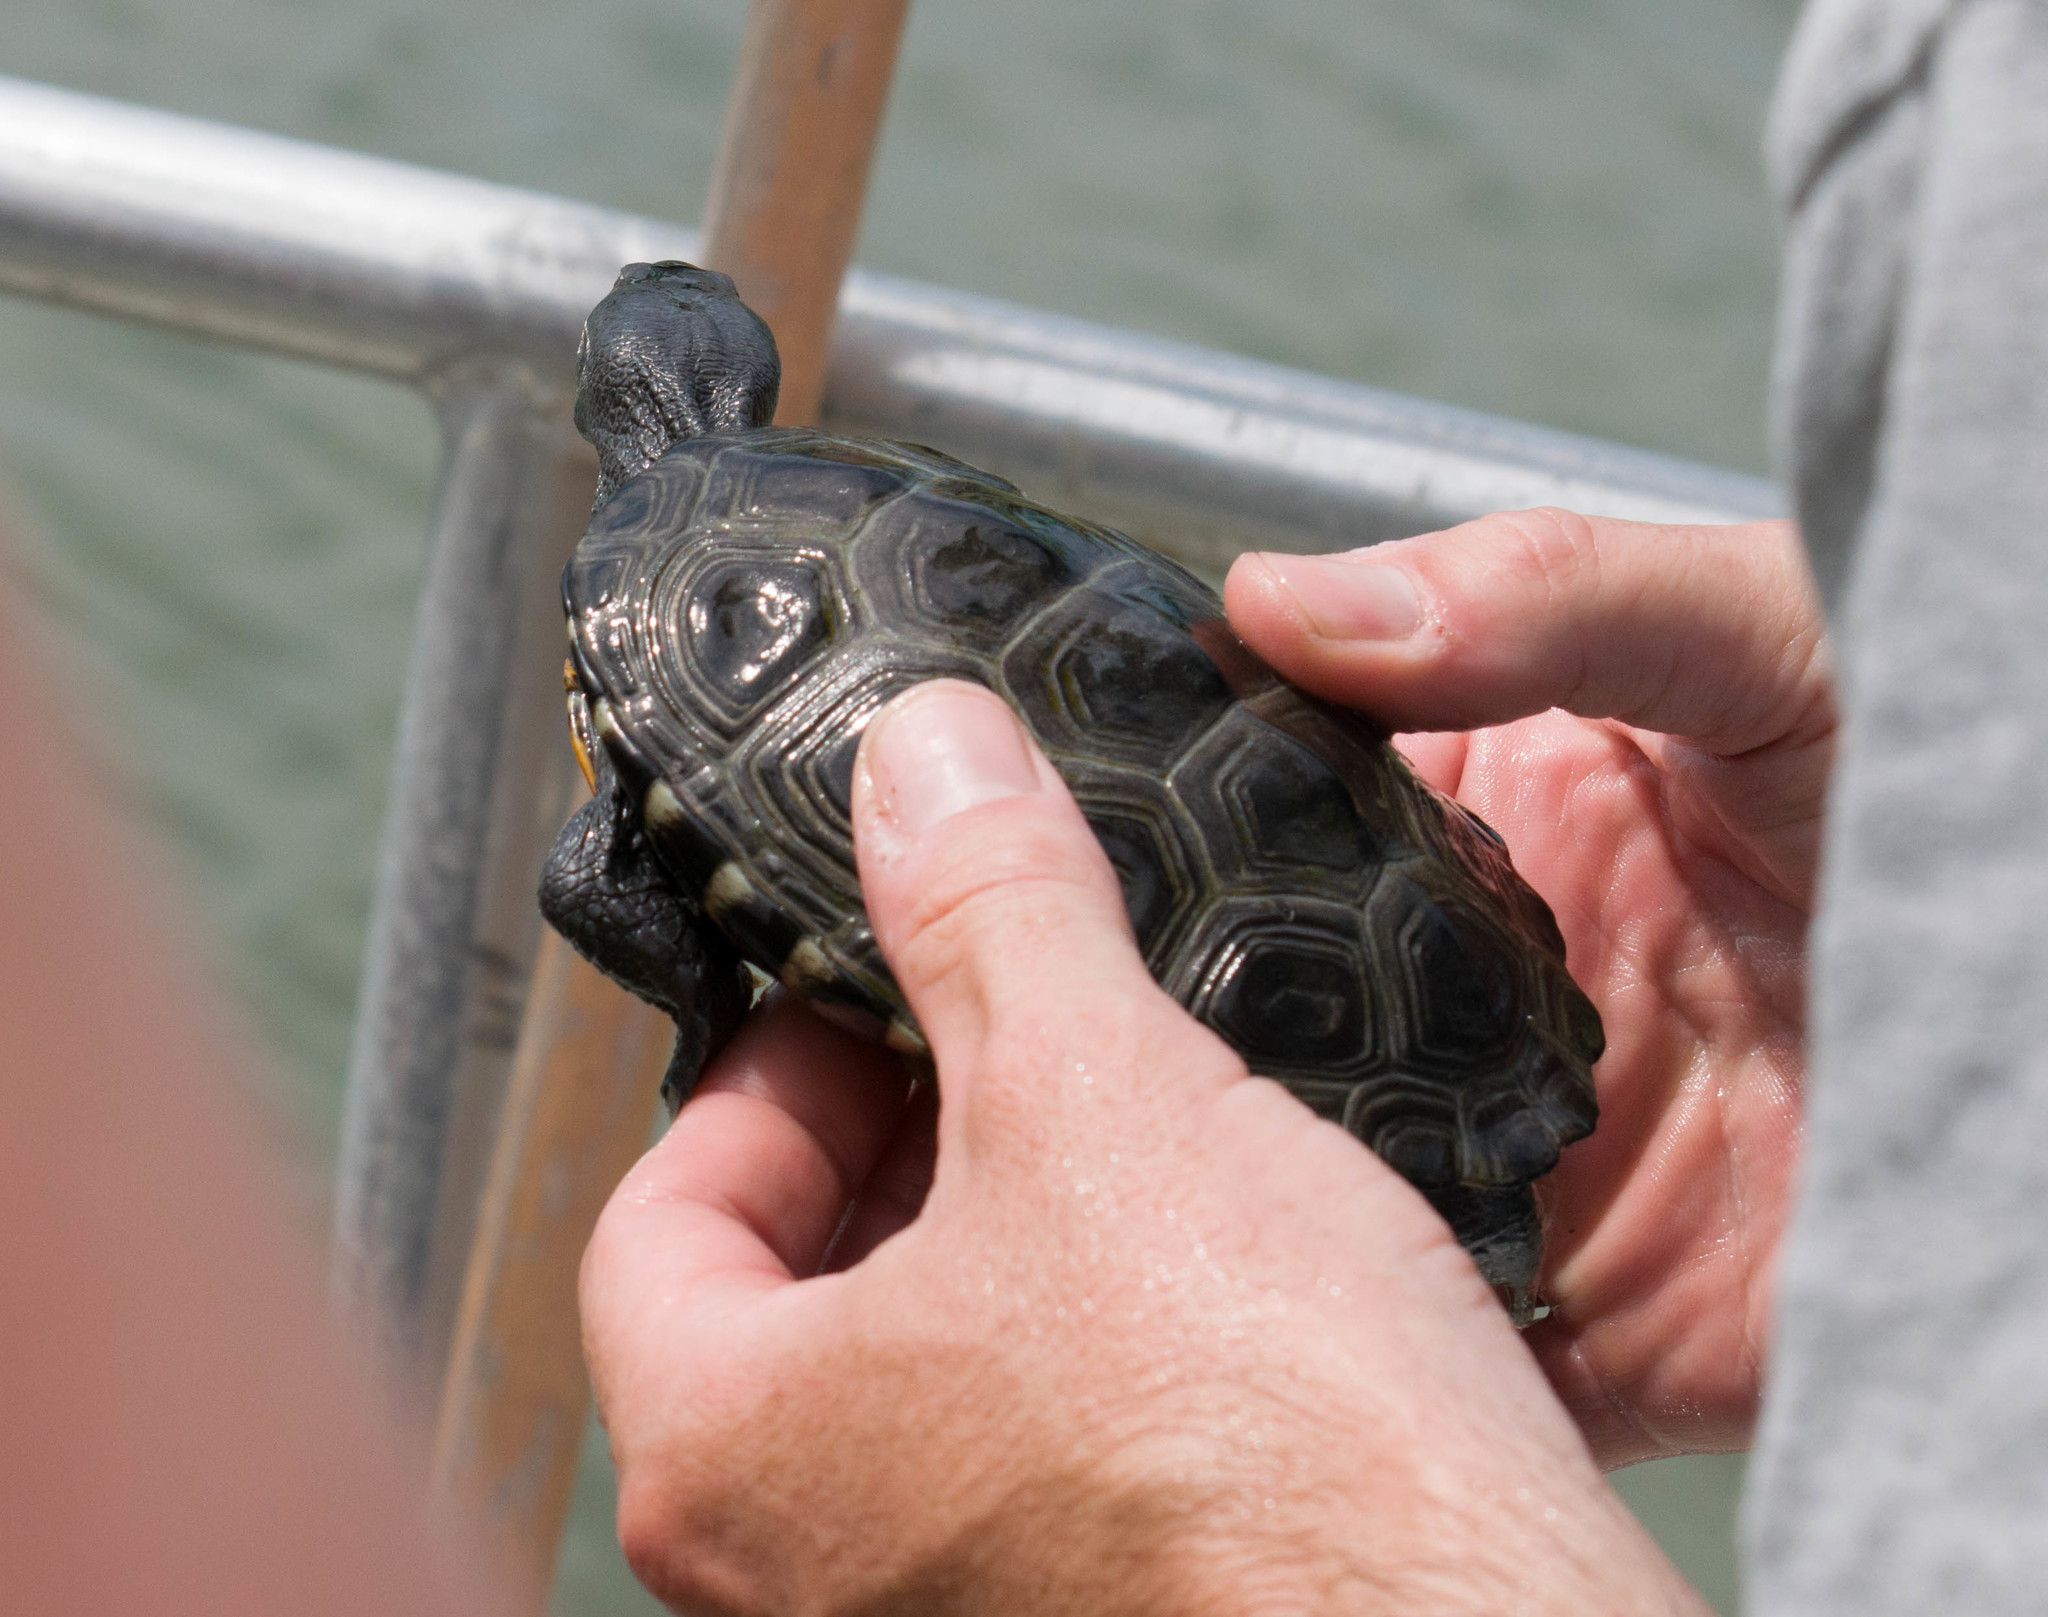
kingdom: Animalia
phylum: Chordata
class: Testudines
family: Emydidae
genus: Malaclemys
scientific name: Malaclemys terrapin
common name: Diamondback terrapin
